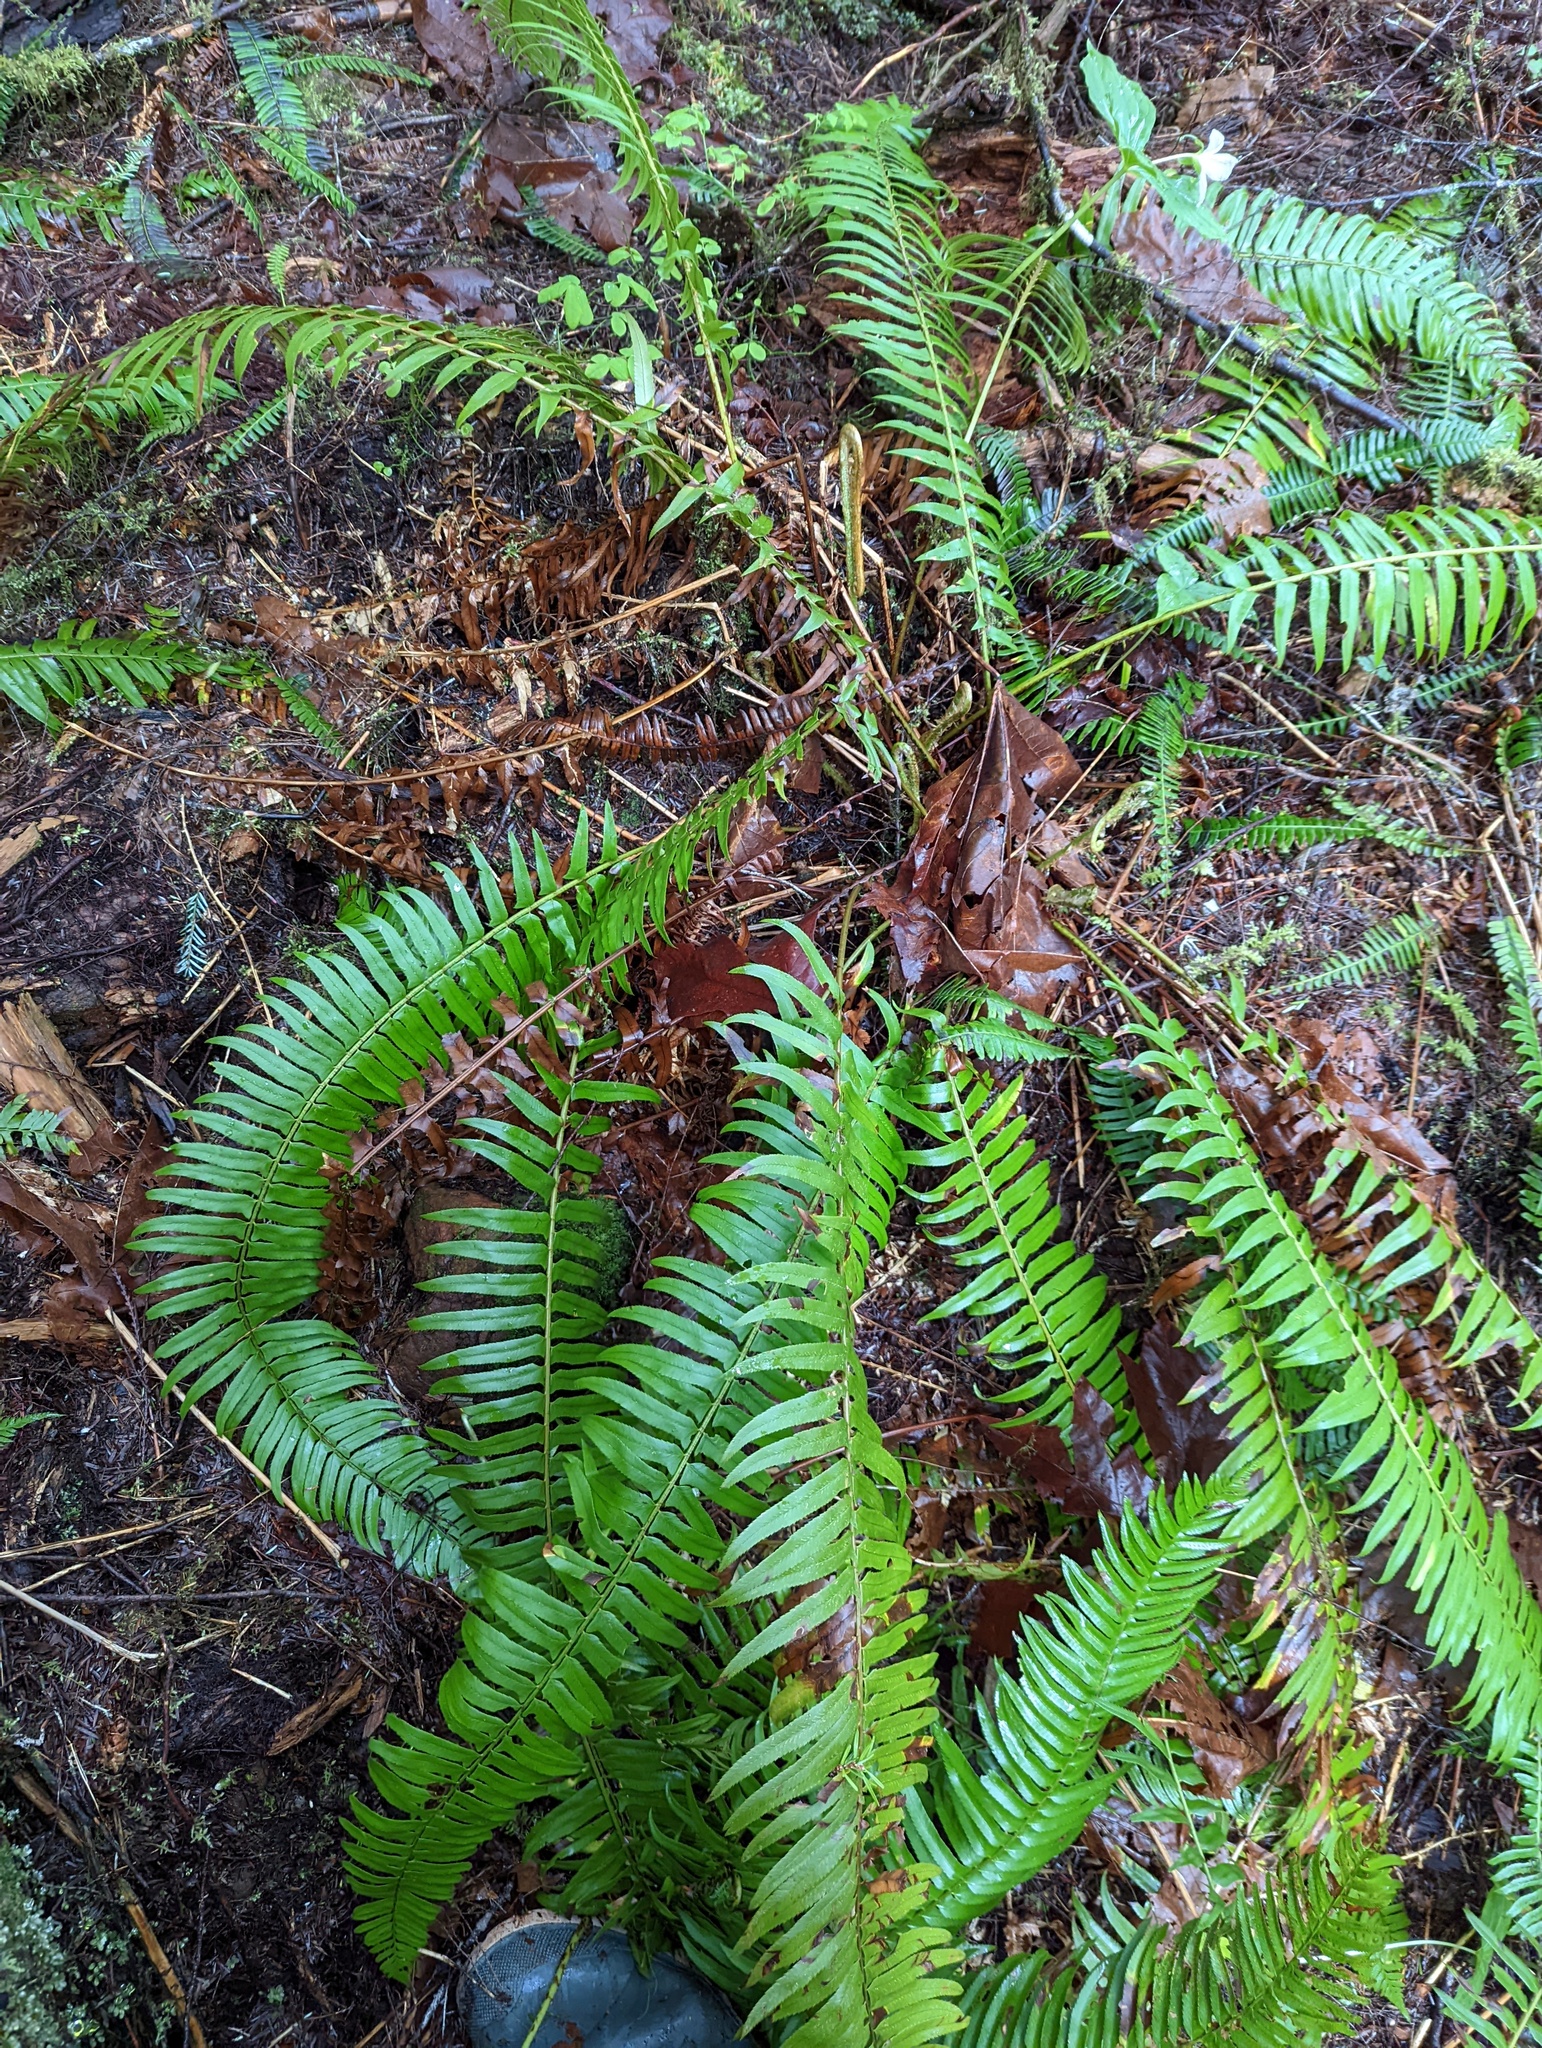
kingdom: Plantae
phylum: Tracheophyta
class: Polypodiopsida
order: Polypodiales
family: Dryopteridaceae
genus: Polystichum
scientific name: Polystichum munitum
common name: Western sword-fern
